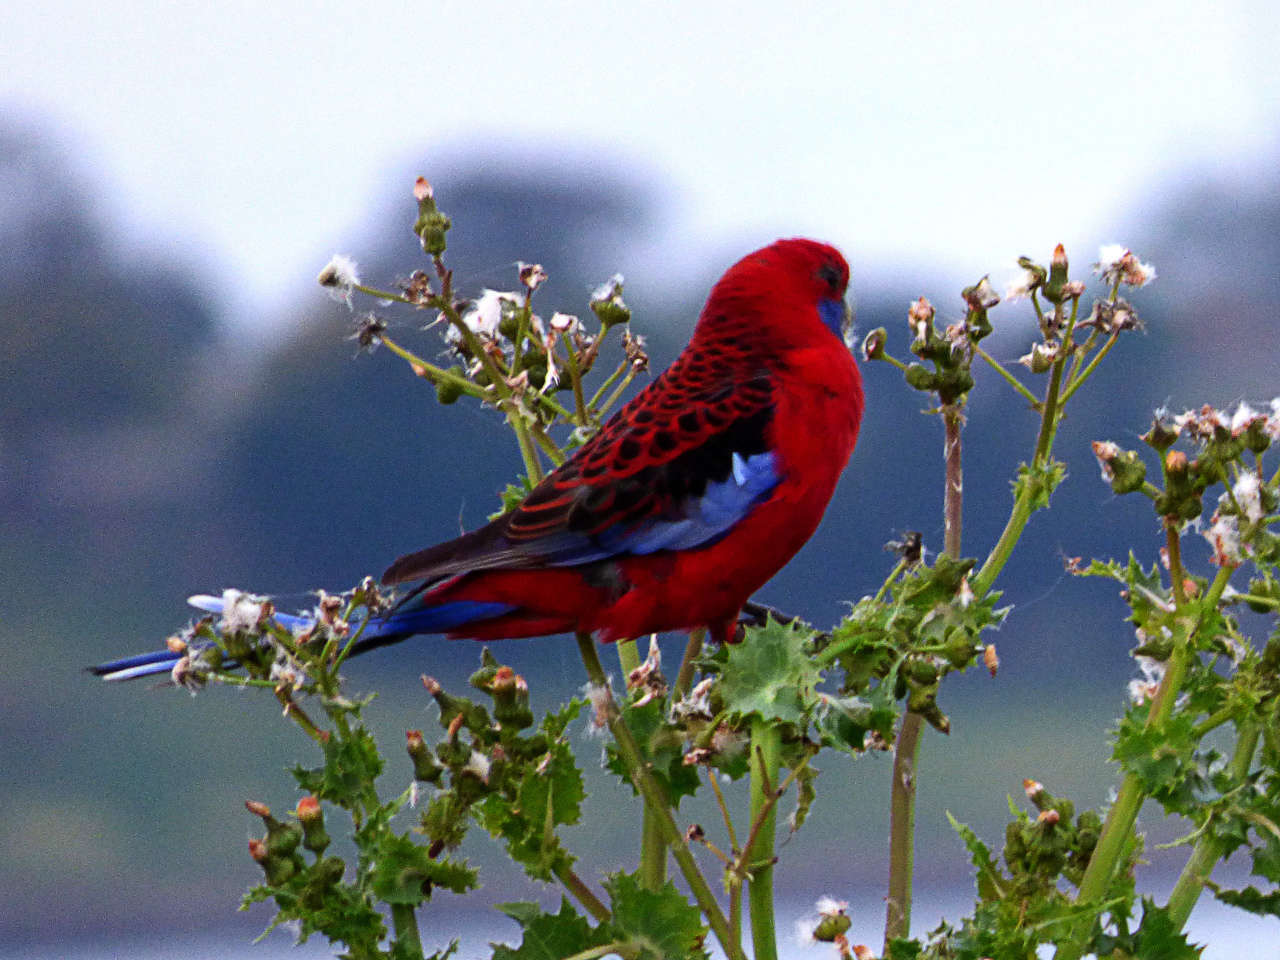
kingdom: Animalia
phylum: Chordata
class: Aves
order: Psittaciformes
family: Psittacidae
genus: Platycercus
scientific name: Platycercus elegans
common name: Crimson rosella
